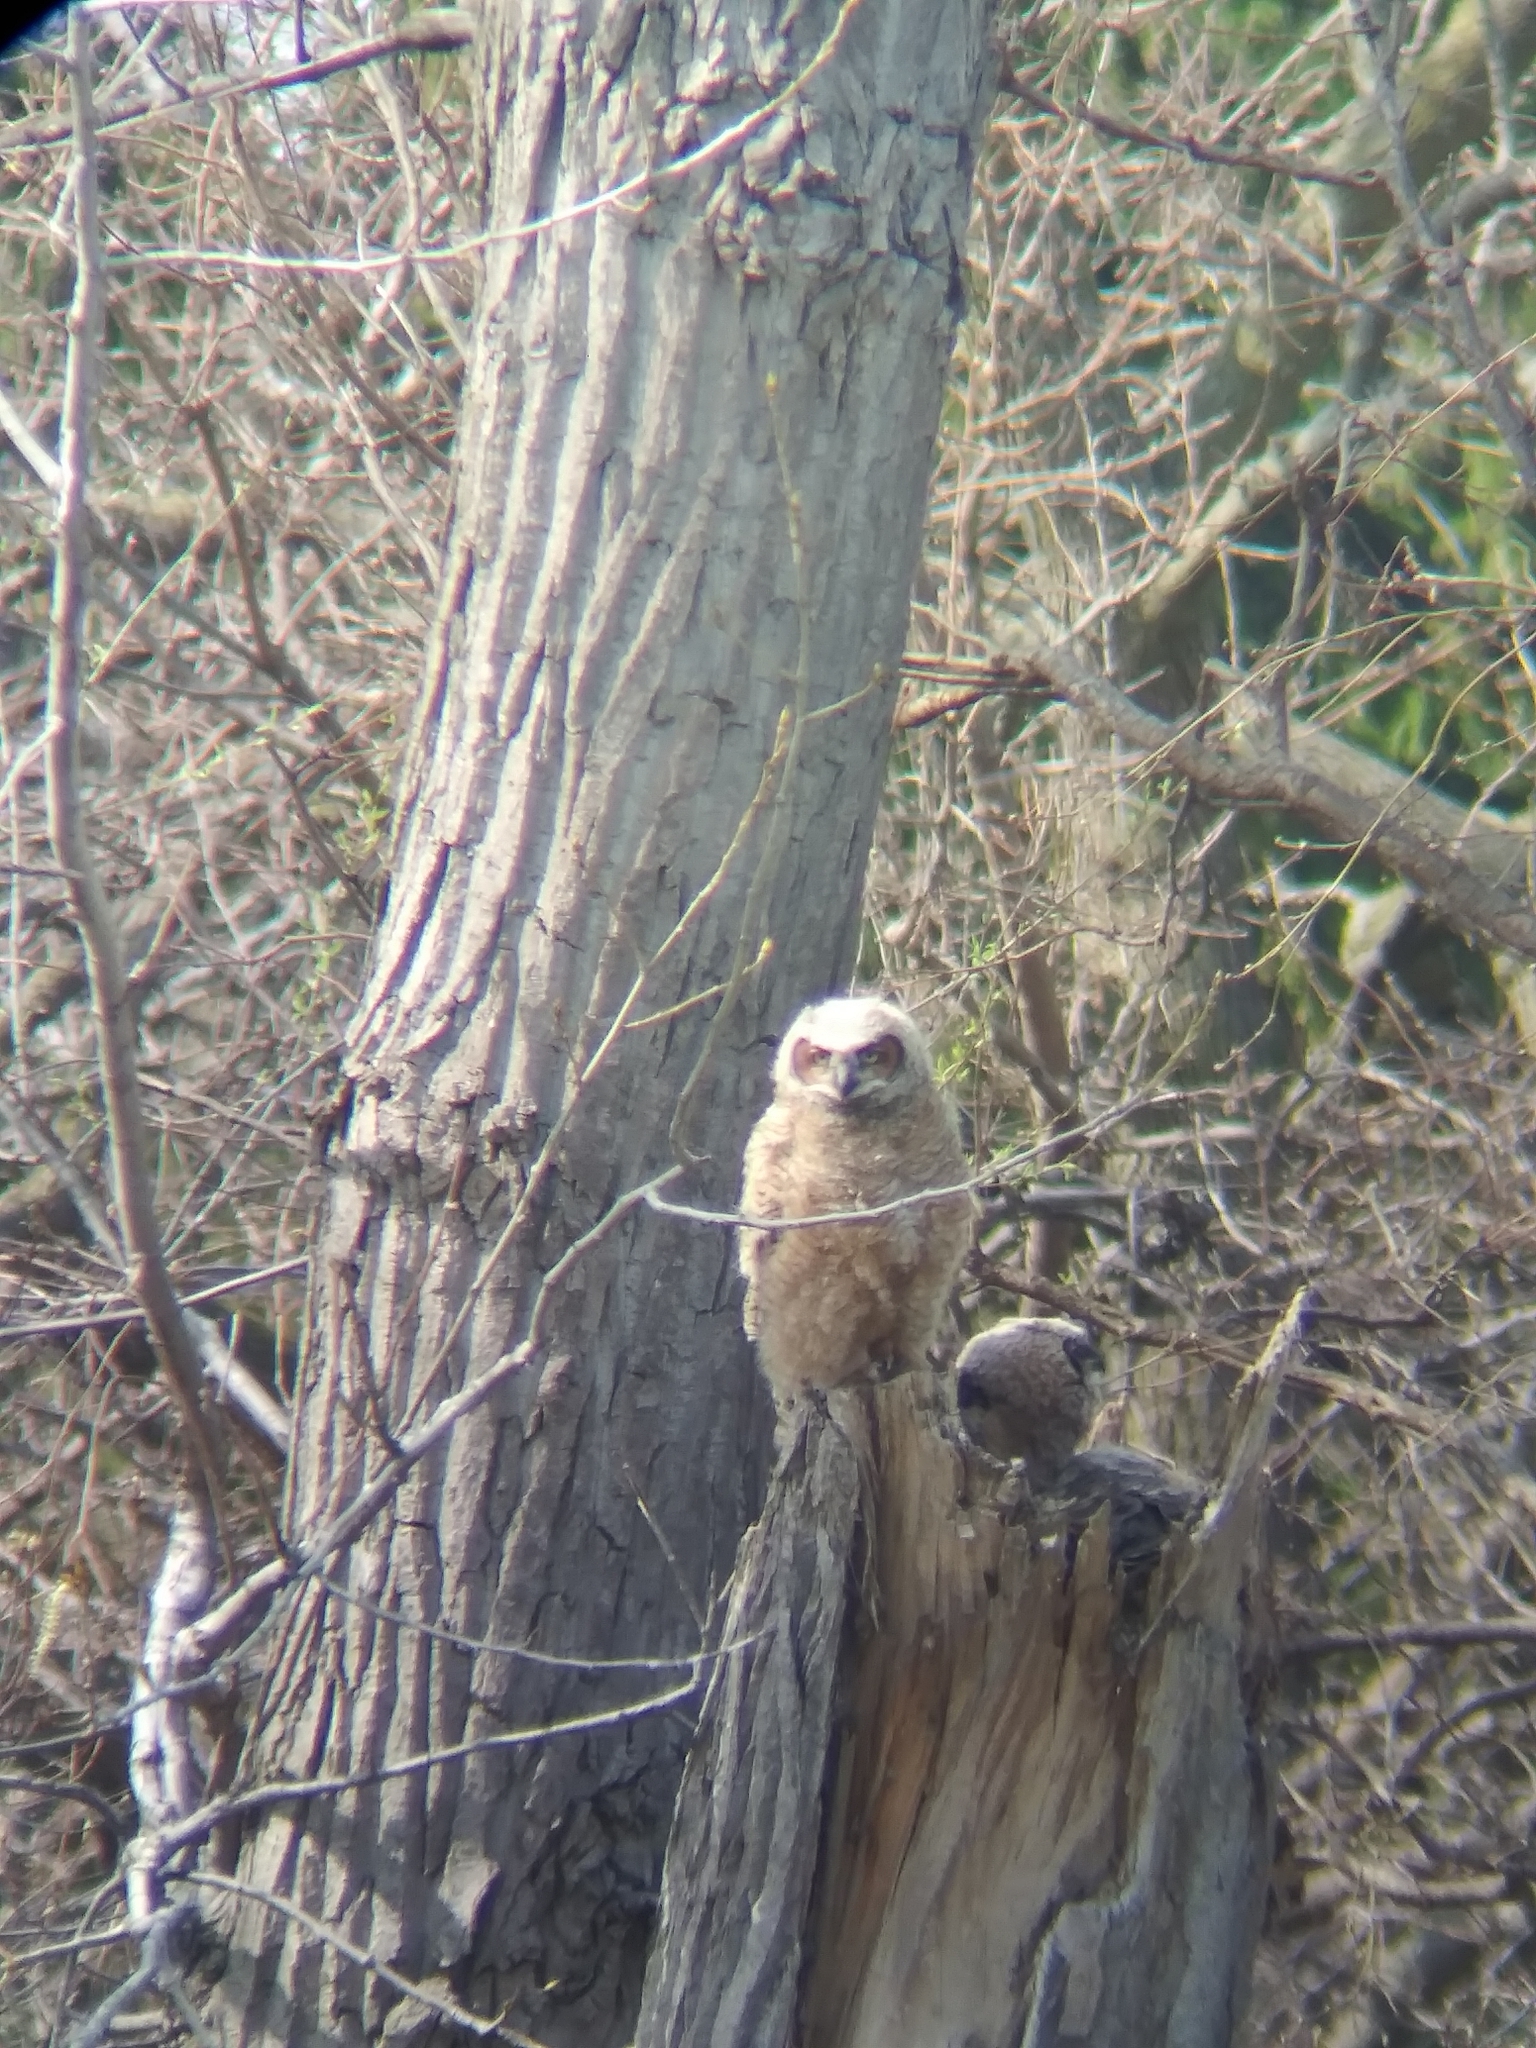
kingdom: Animalia
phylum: Chordata
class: Aves
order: Strigiformes
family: Strigidae
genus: Bubo
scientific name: Bubo virginianus
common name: Great horned owl
